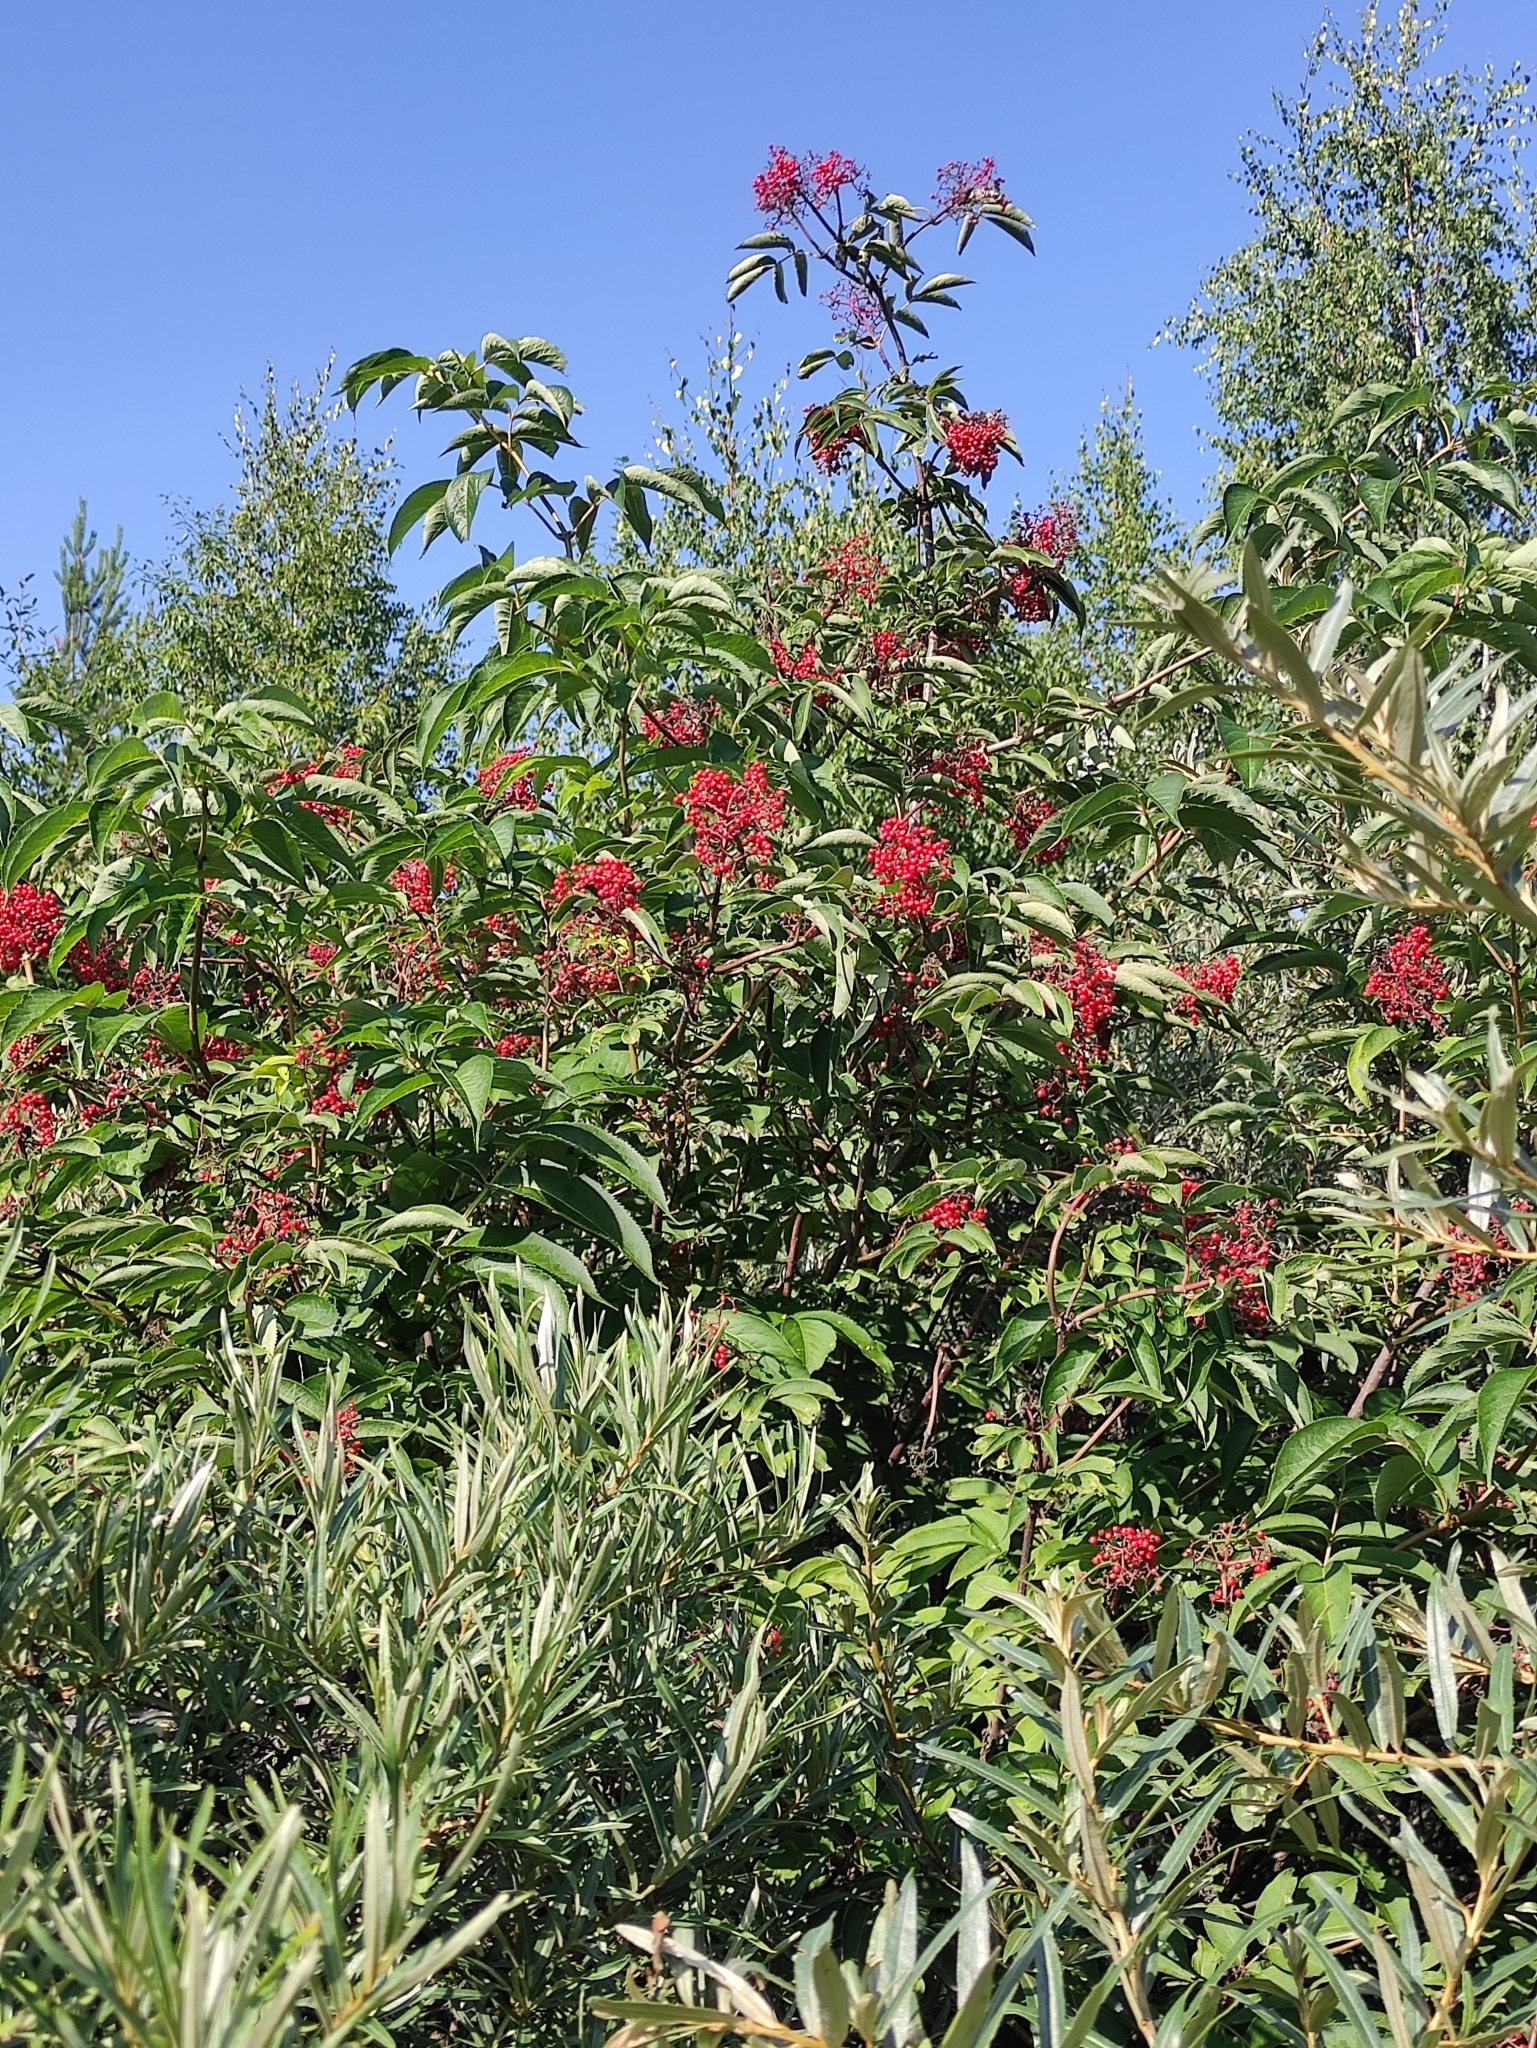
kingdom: Plantae
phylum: Tracheophyta
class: Magnoliopsida
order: Dipsacales
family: Viburnaceae
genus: Sambucus
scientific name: Sambucus sibirica
